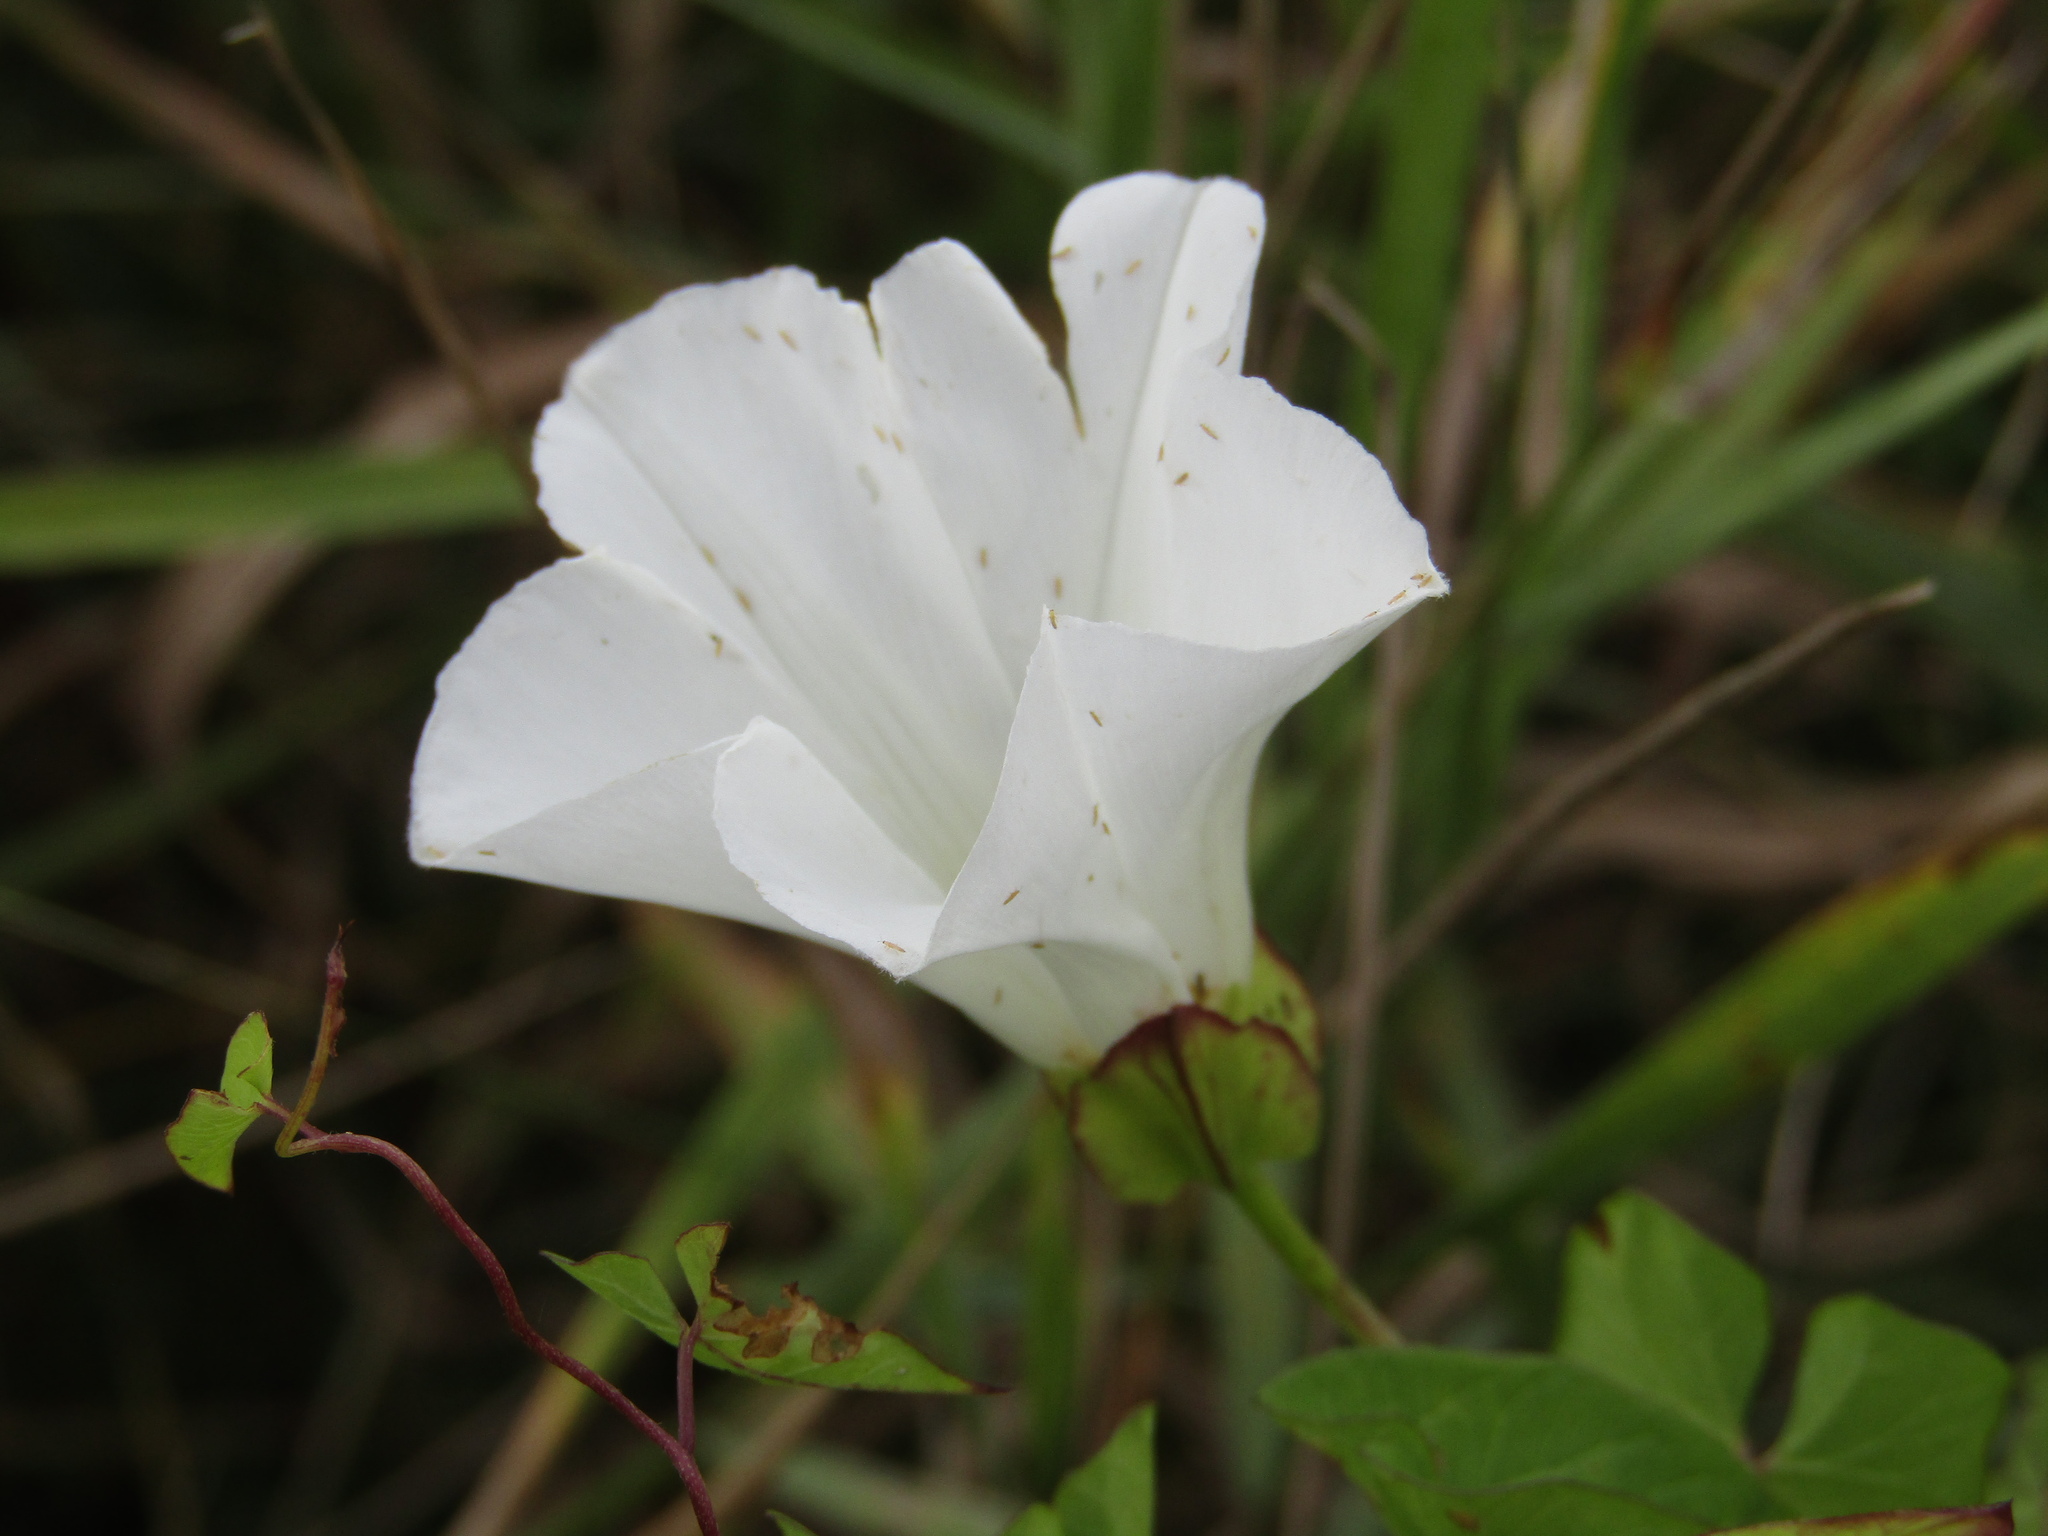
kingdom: Plantae
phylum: Tracheophyta
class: Magnoliopsida
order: Solanales
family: Convolvulaceae
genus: Calystegia
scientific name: Calystegia sepium
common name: Hedge bindweed
